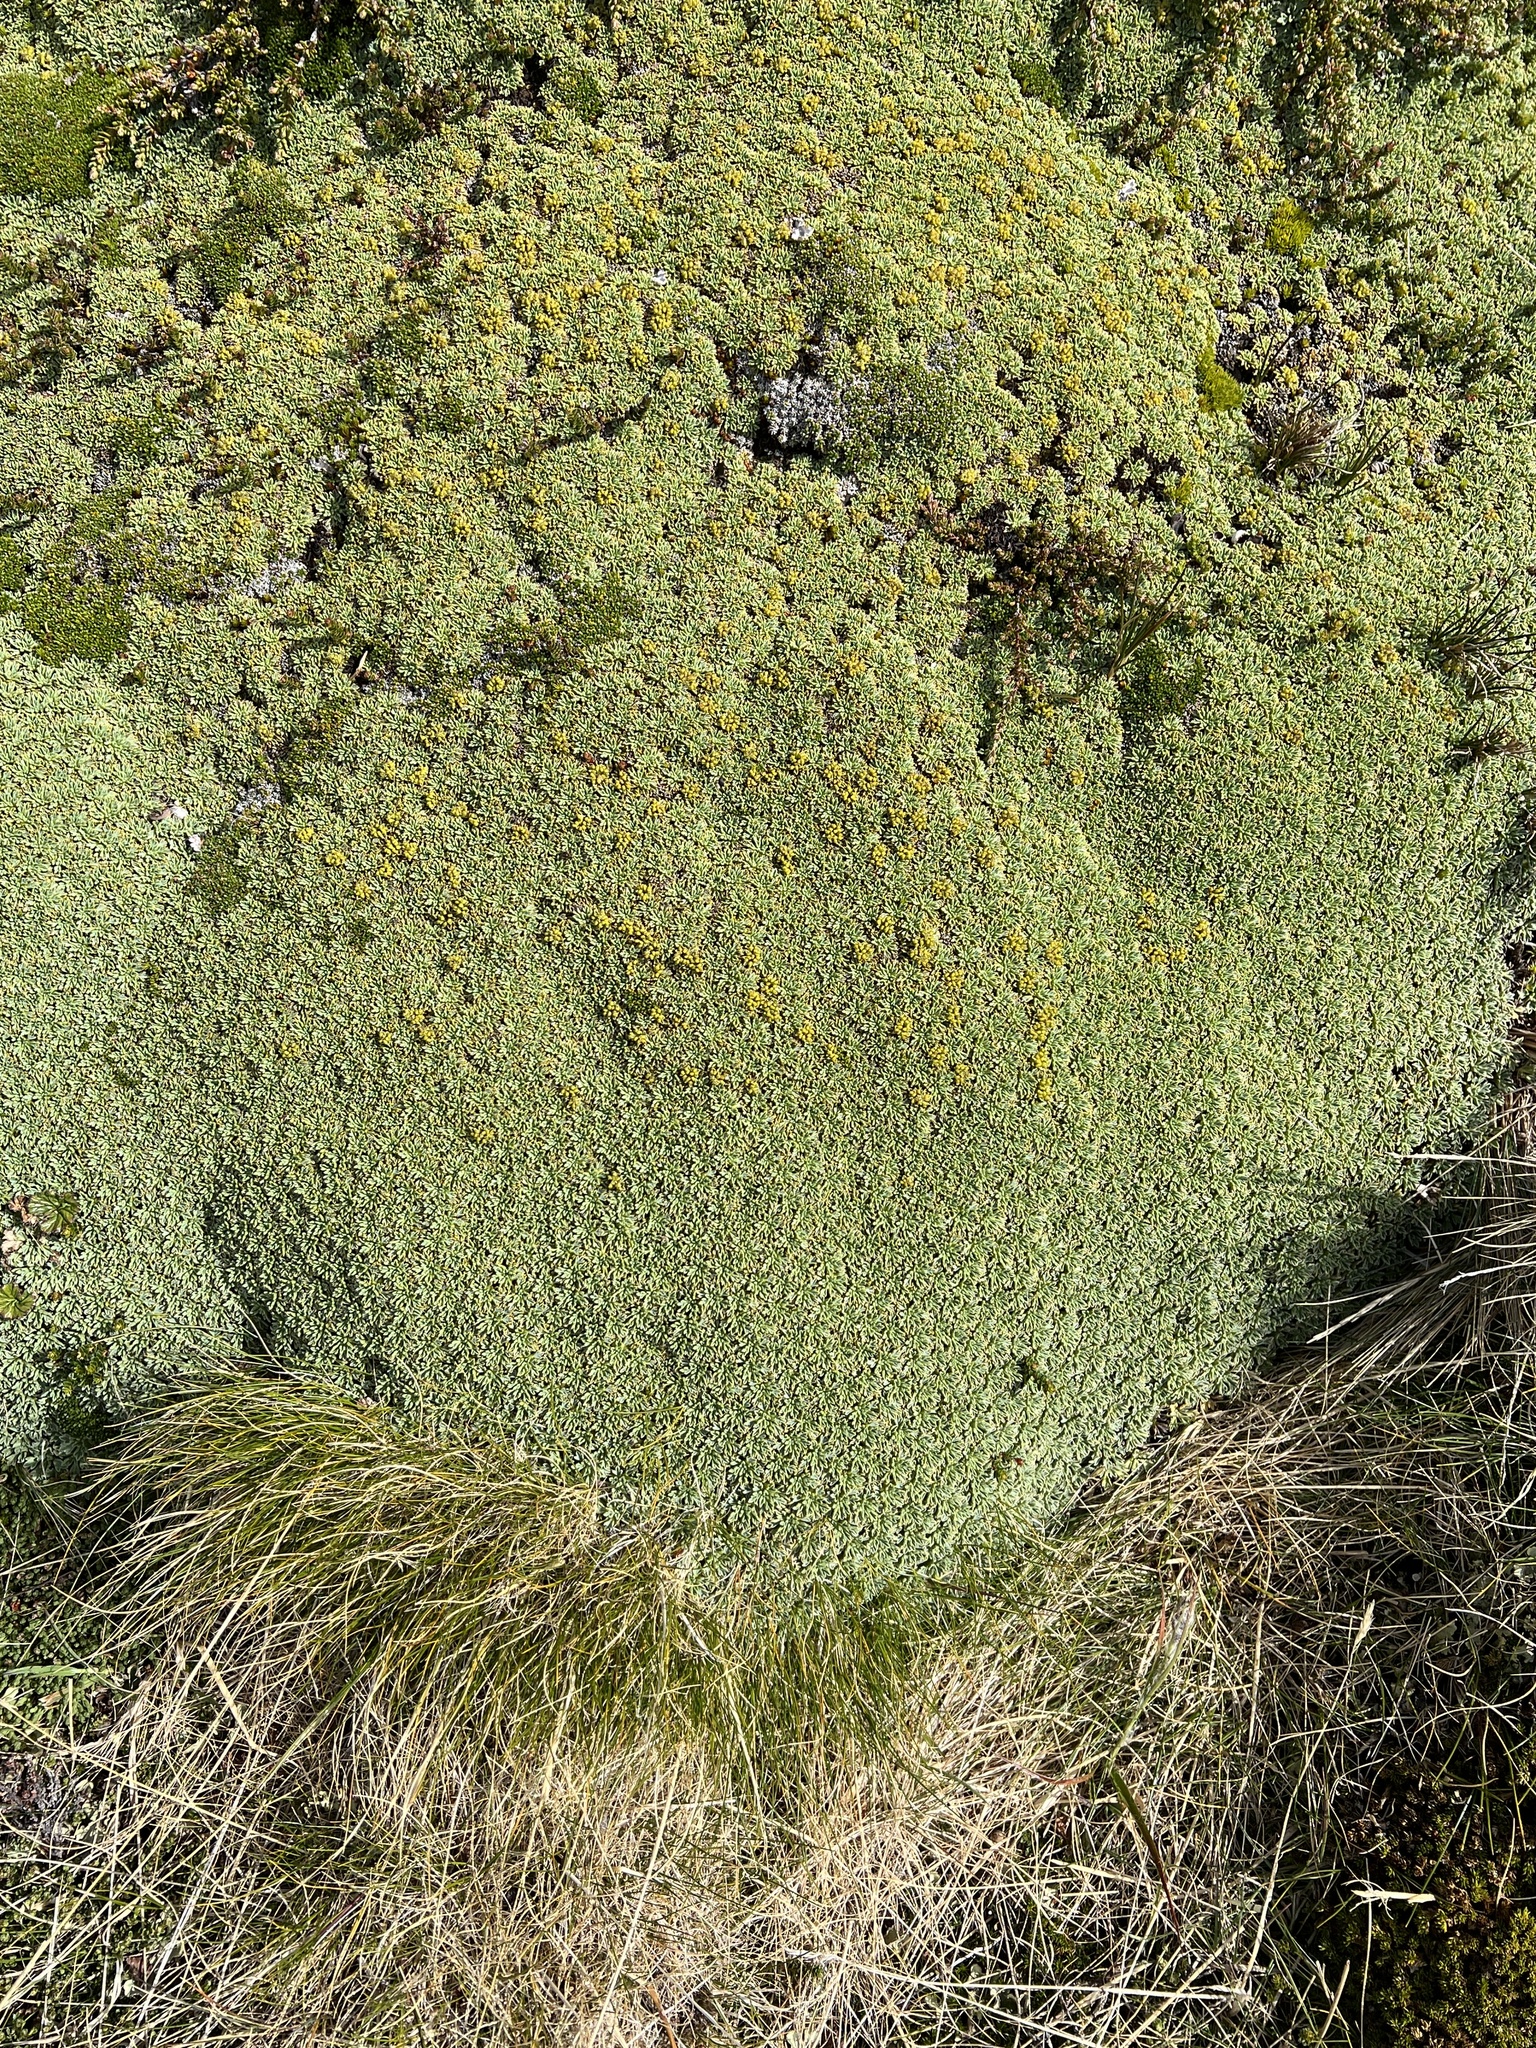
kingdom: Plantae
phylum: Tracheophyta
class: Magnoliopsida
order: Apiales
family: Apiaceae
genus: Bolax
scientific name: Bolax gummifera
